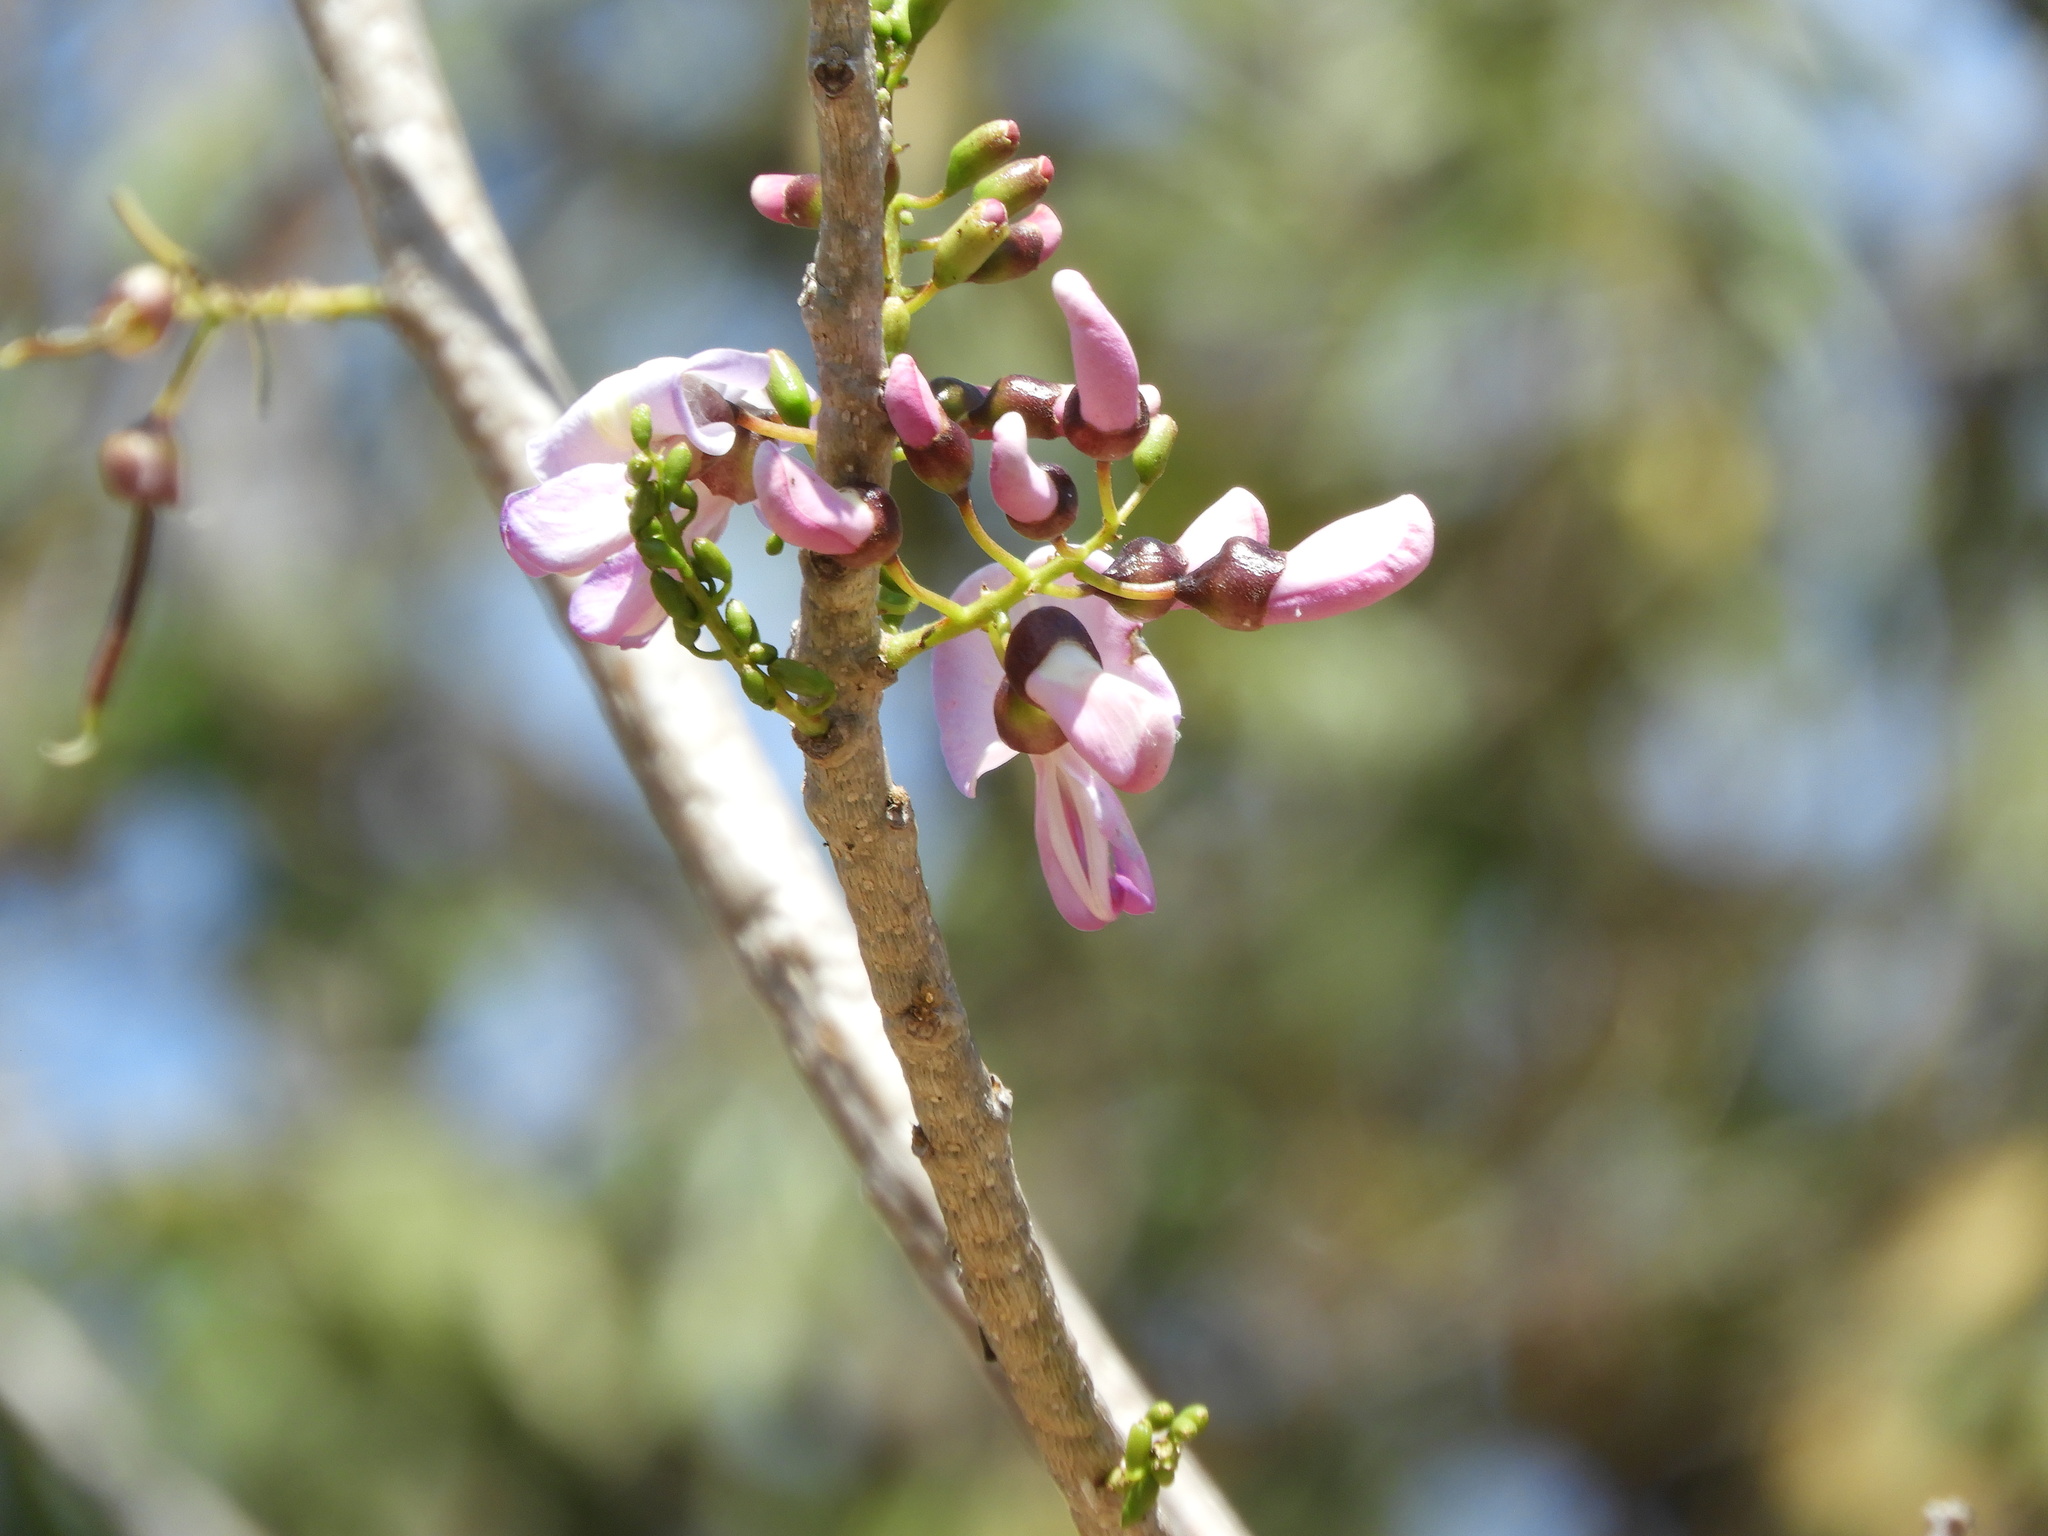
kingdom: Plantae
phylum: Tracheophyta
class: Magnoliopsida
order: Fabales
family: Fabaceae
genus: Gliricidia
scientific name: Gliricidia sepium
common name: Quickstick
